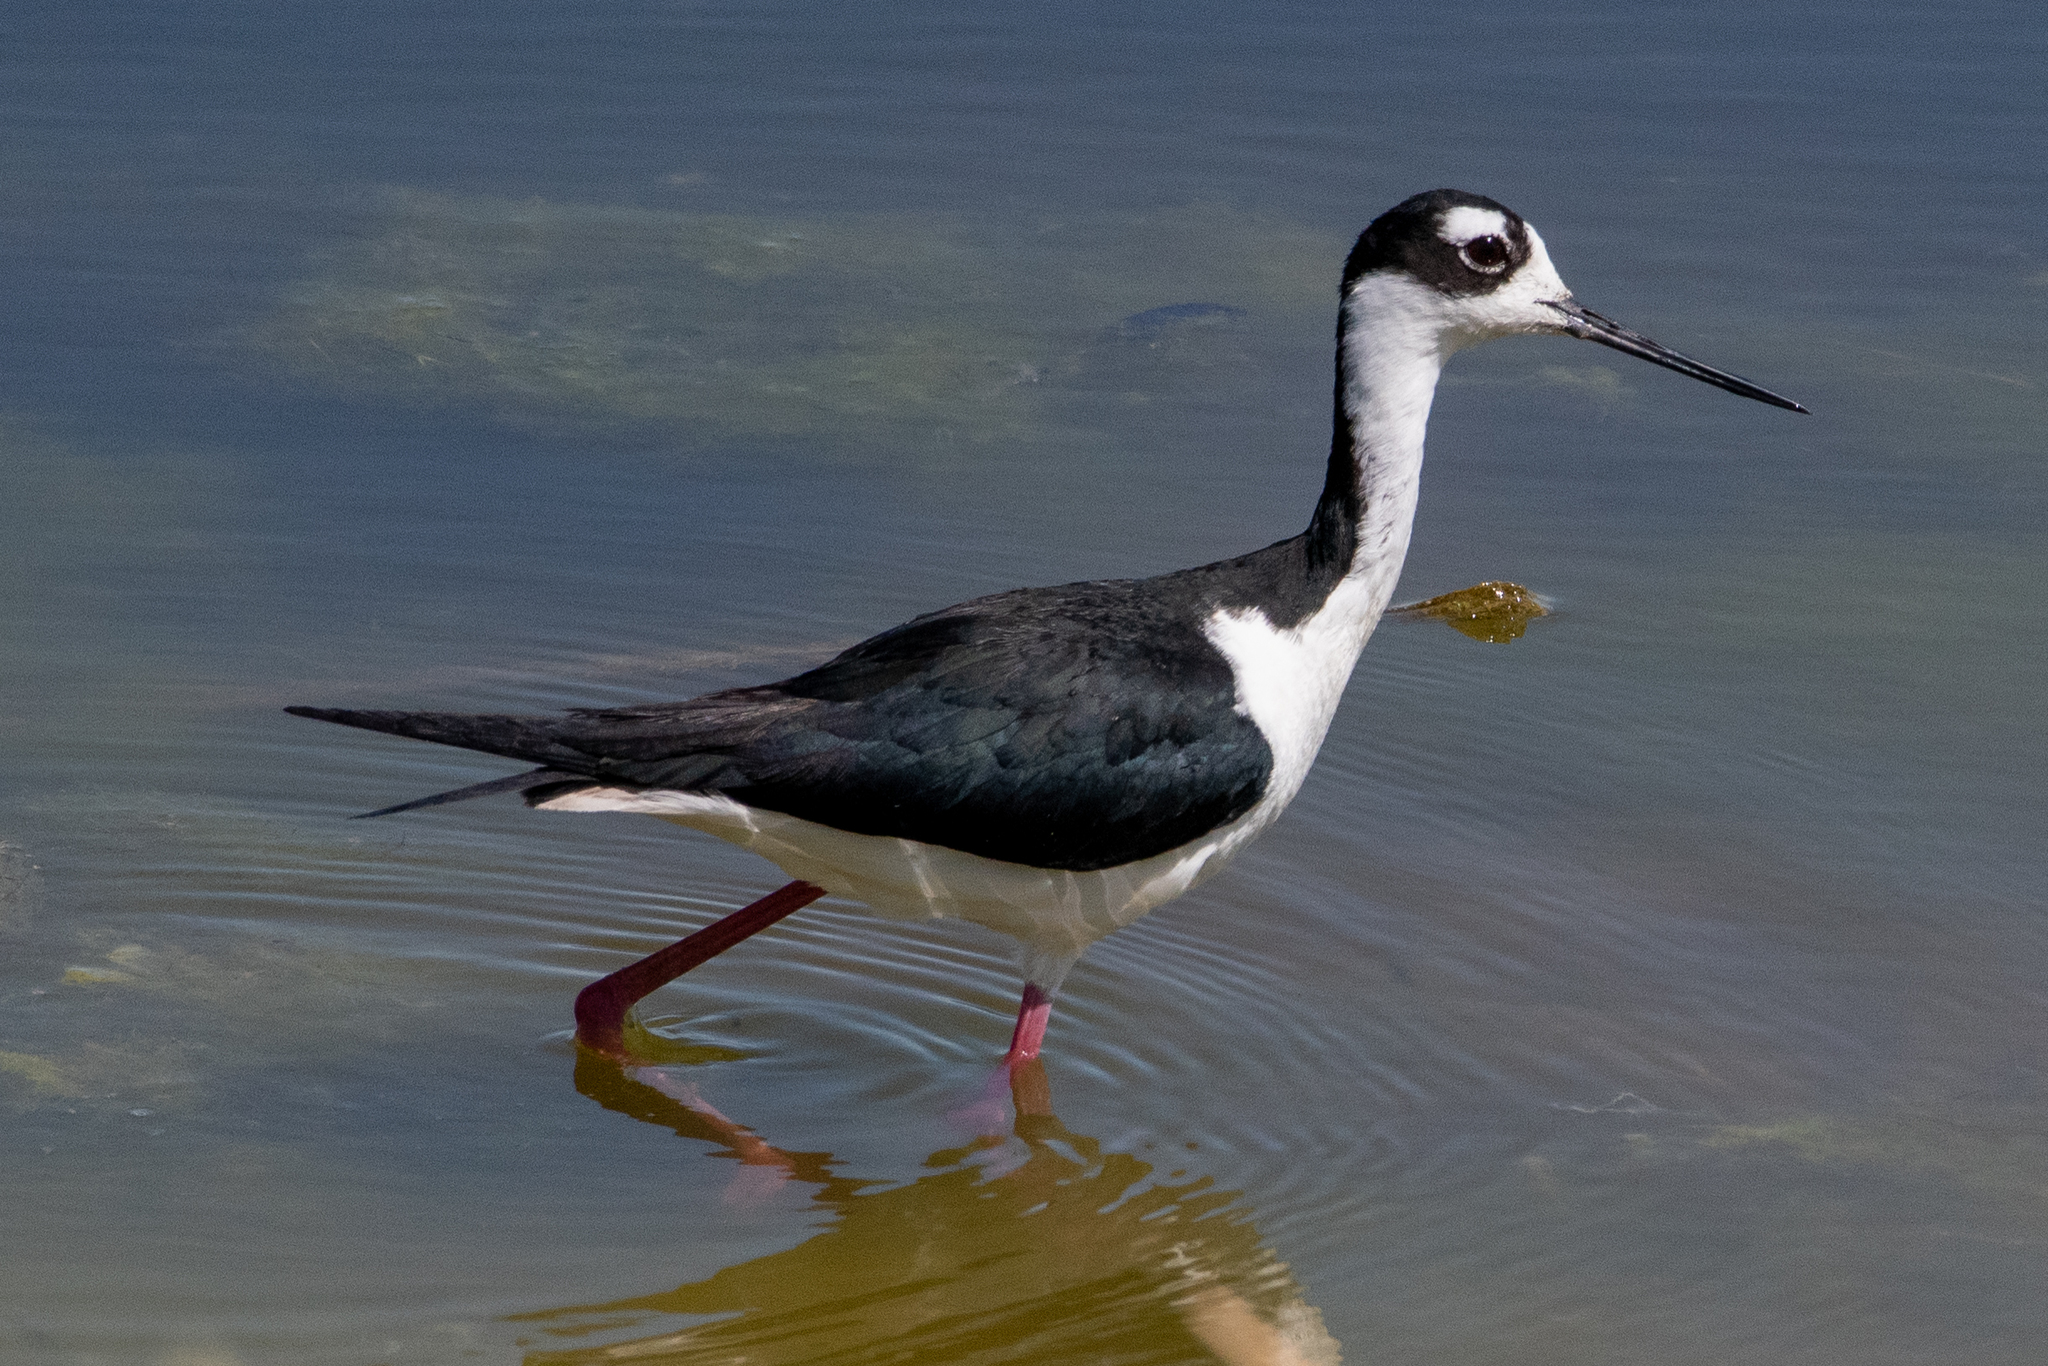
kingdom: Animalia
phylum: Chordata
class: Aves
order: Charadriiformes
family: Recurvirostridae
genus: Himantopus
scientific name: Himantopus mexicanus
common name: Black-necked stilt
